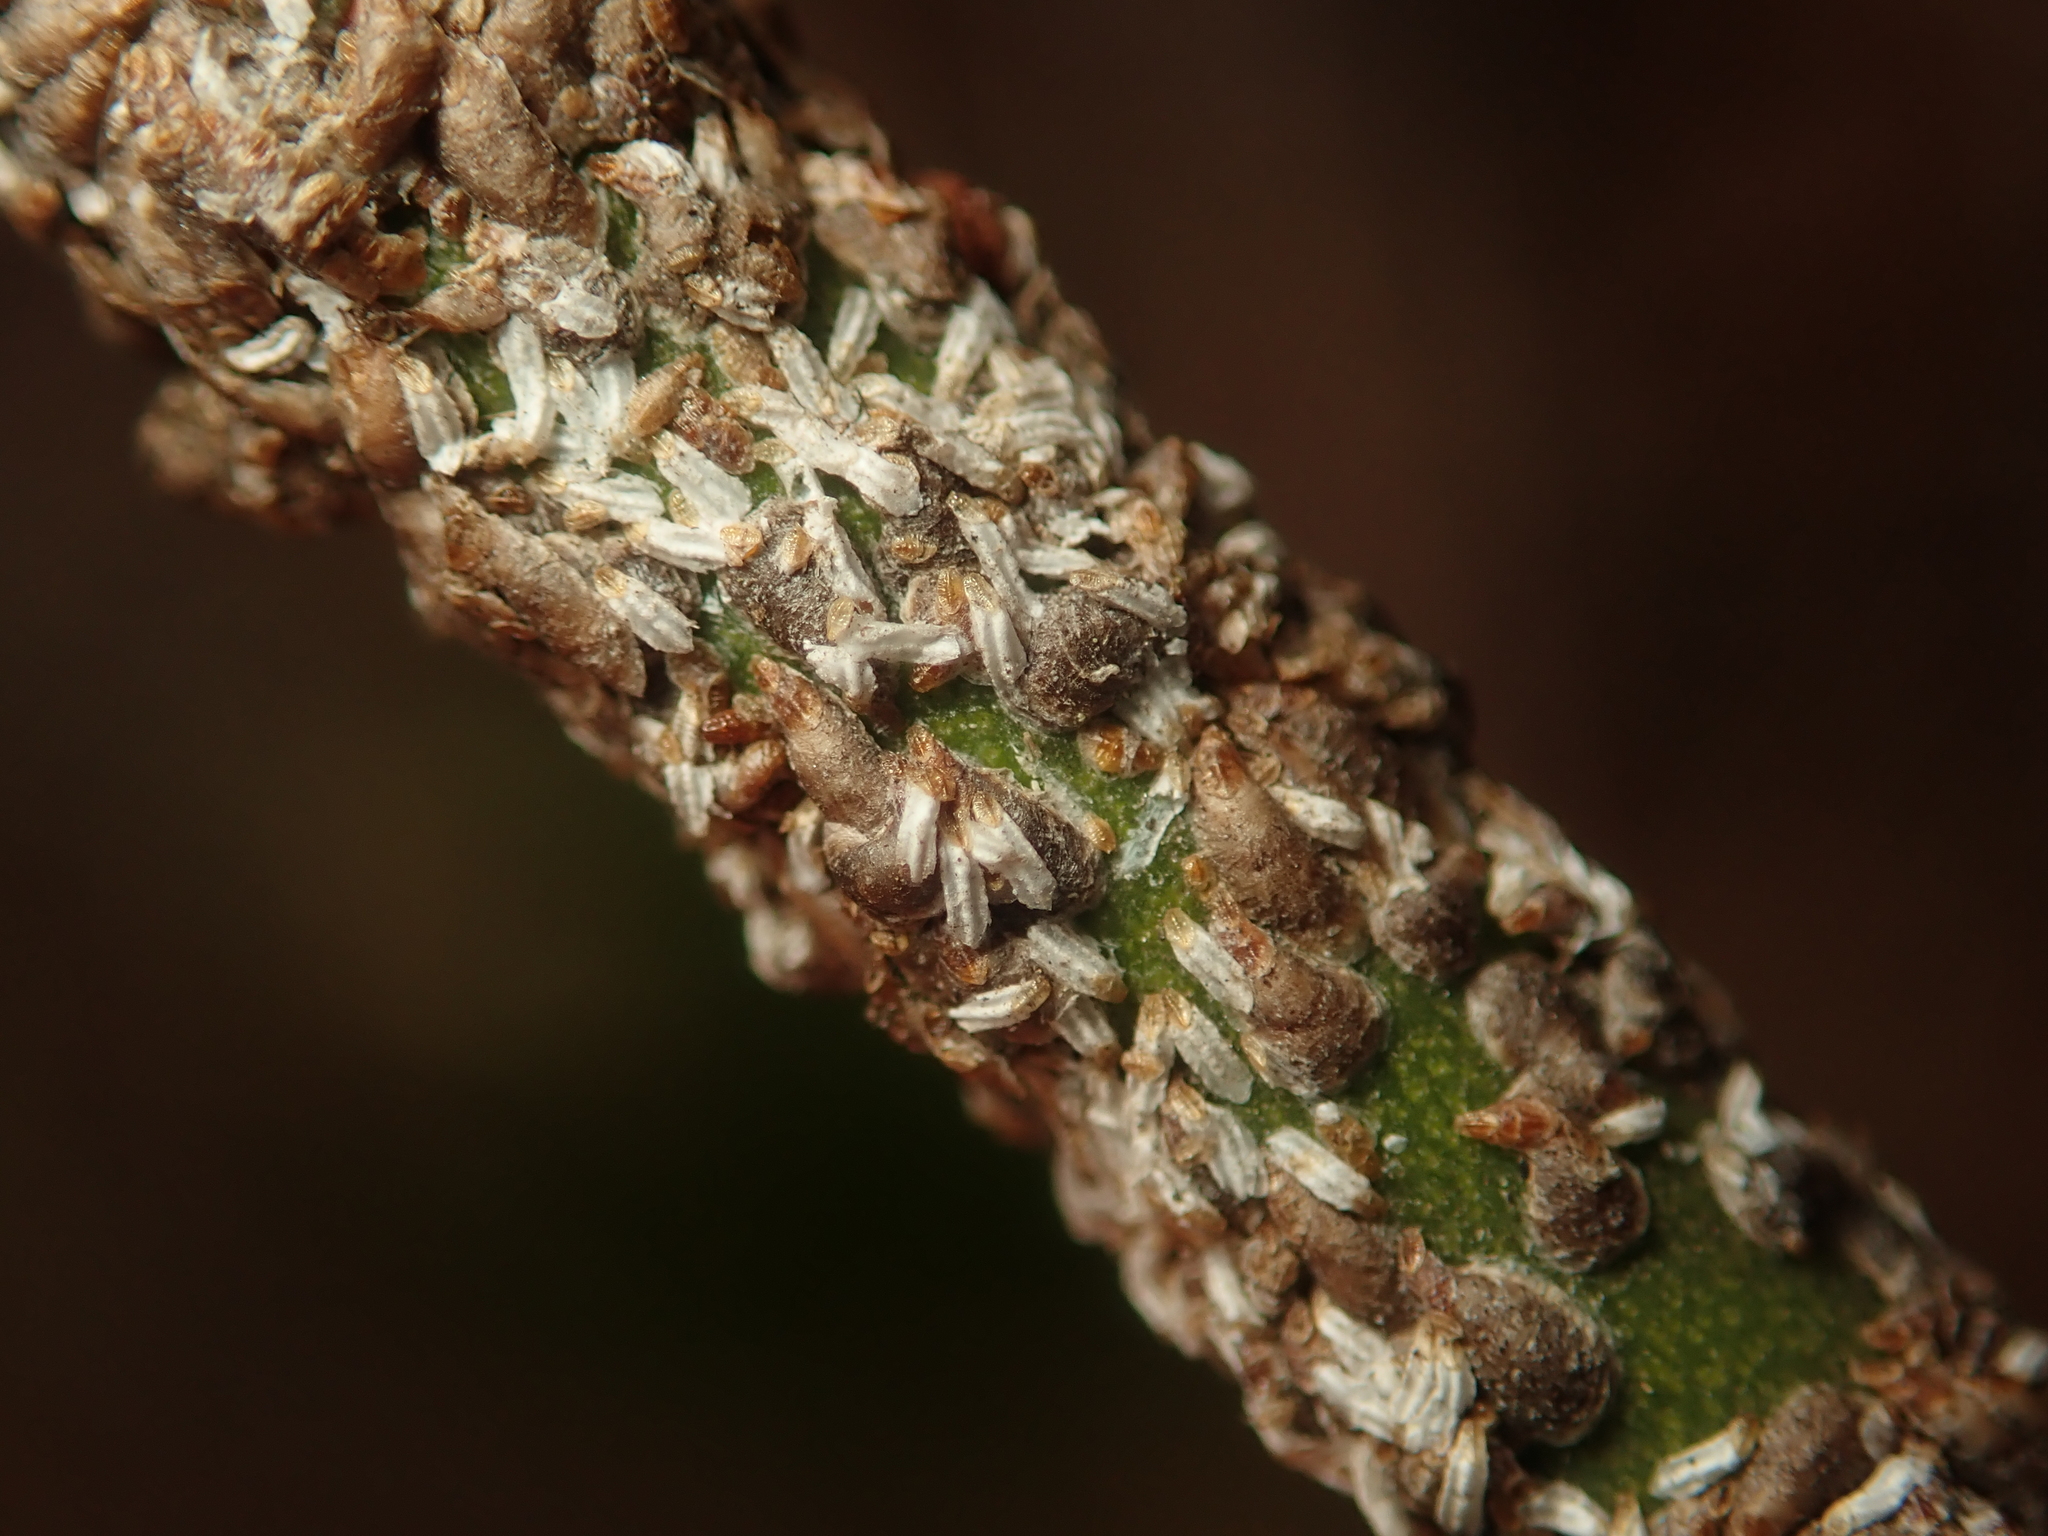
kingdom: Animalia
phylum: Arthropoda
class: Insecta
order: Hemiptera
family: Diaspididae
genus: Unaspis
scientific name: Unaspis euonymi
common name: Euonymus scale
